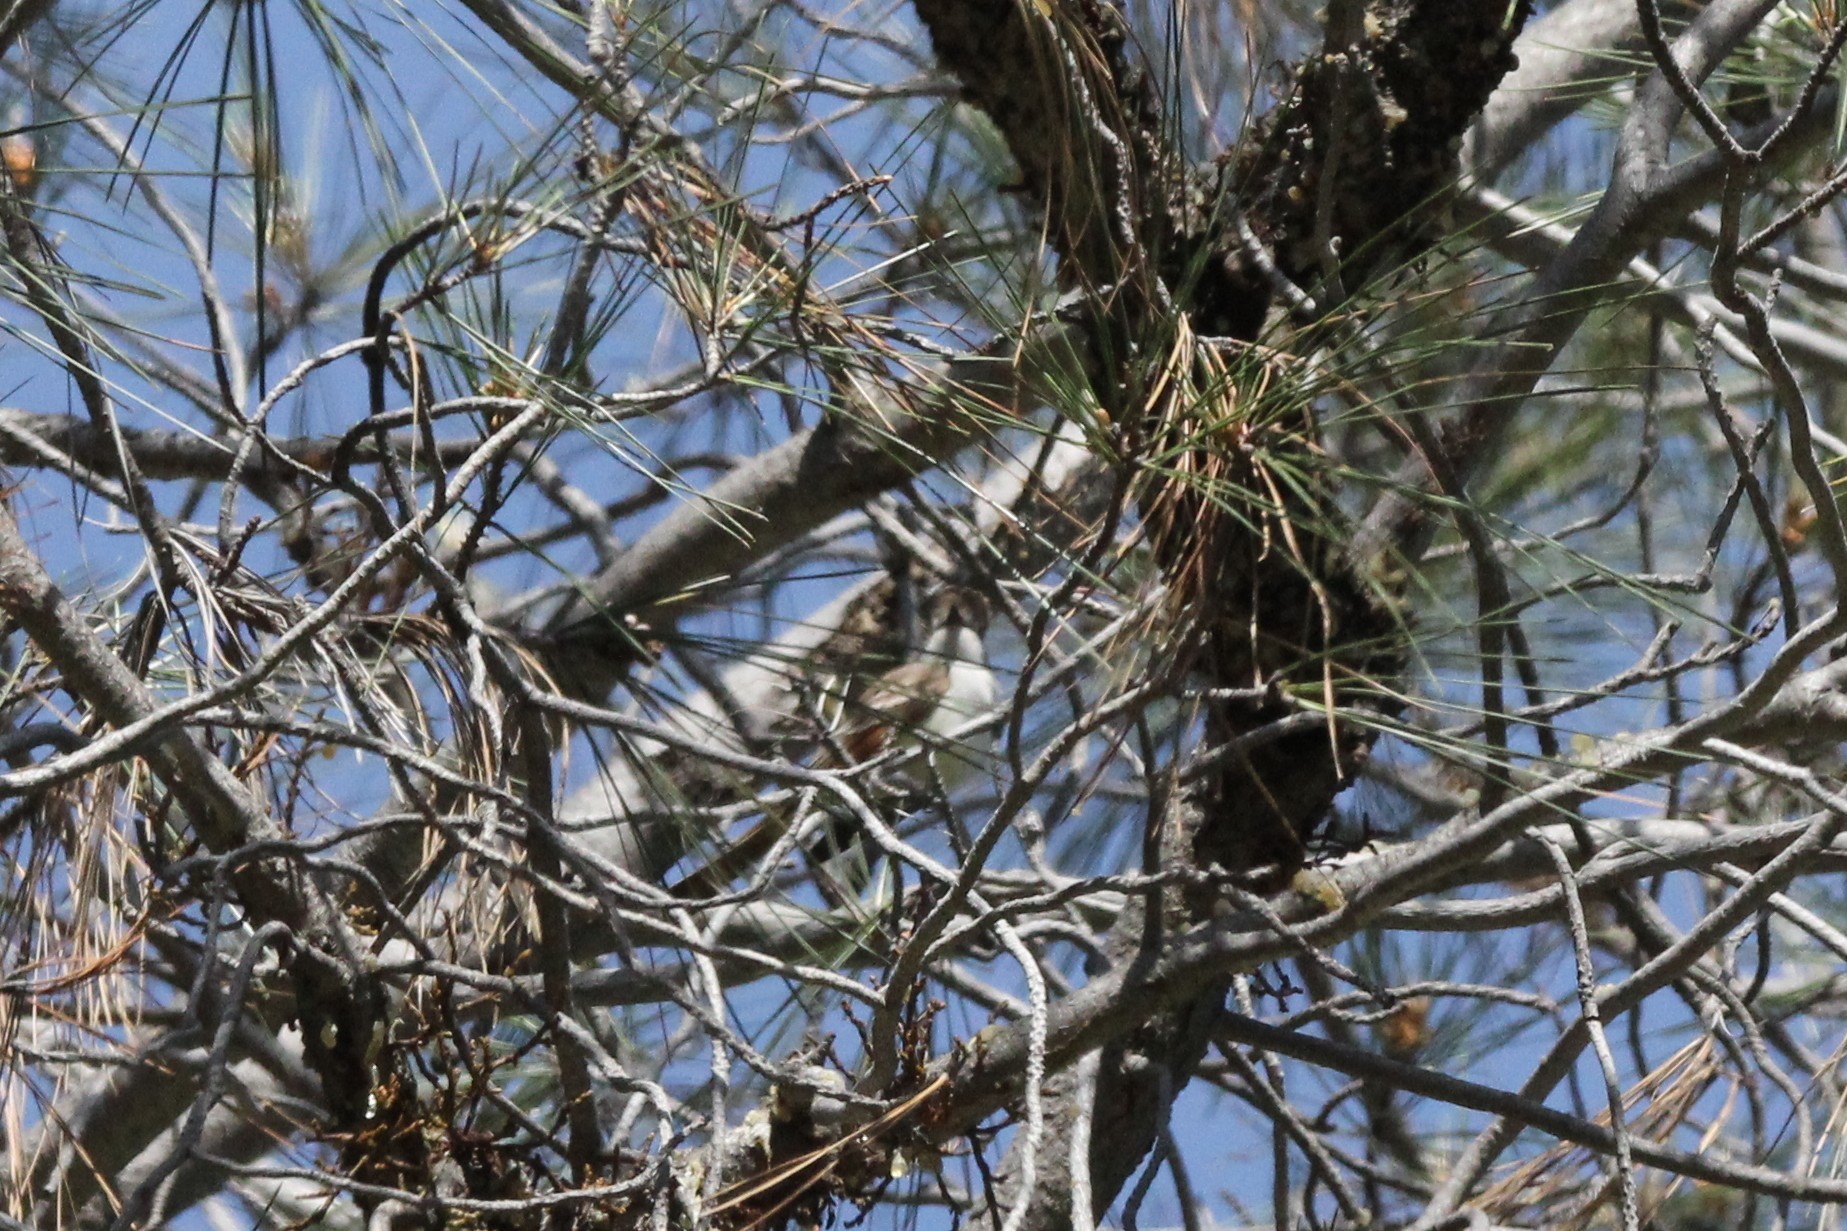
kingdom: Animalia
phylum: Chordata
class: Aves
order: Passeriformes
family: Tyrannidae
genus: Myiarchus
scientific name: Myiarchus cinerascens
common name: Ash-throated flycatcher
